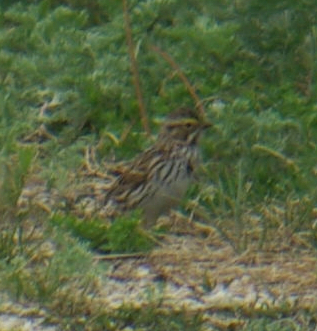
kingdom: Animalia
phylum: Chordata
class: Aves
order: Passeriformes
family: Passerellidae
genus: Passerculus
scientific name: Passerculus sandwichensis
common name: Savannah sparrow
